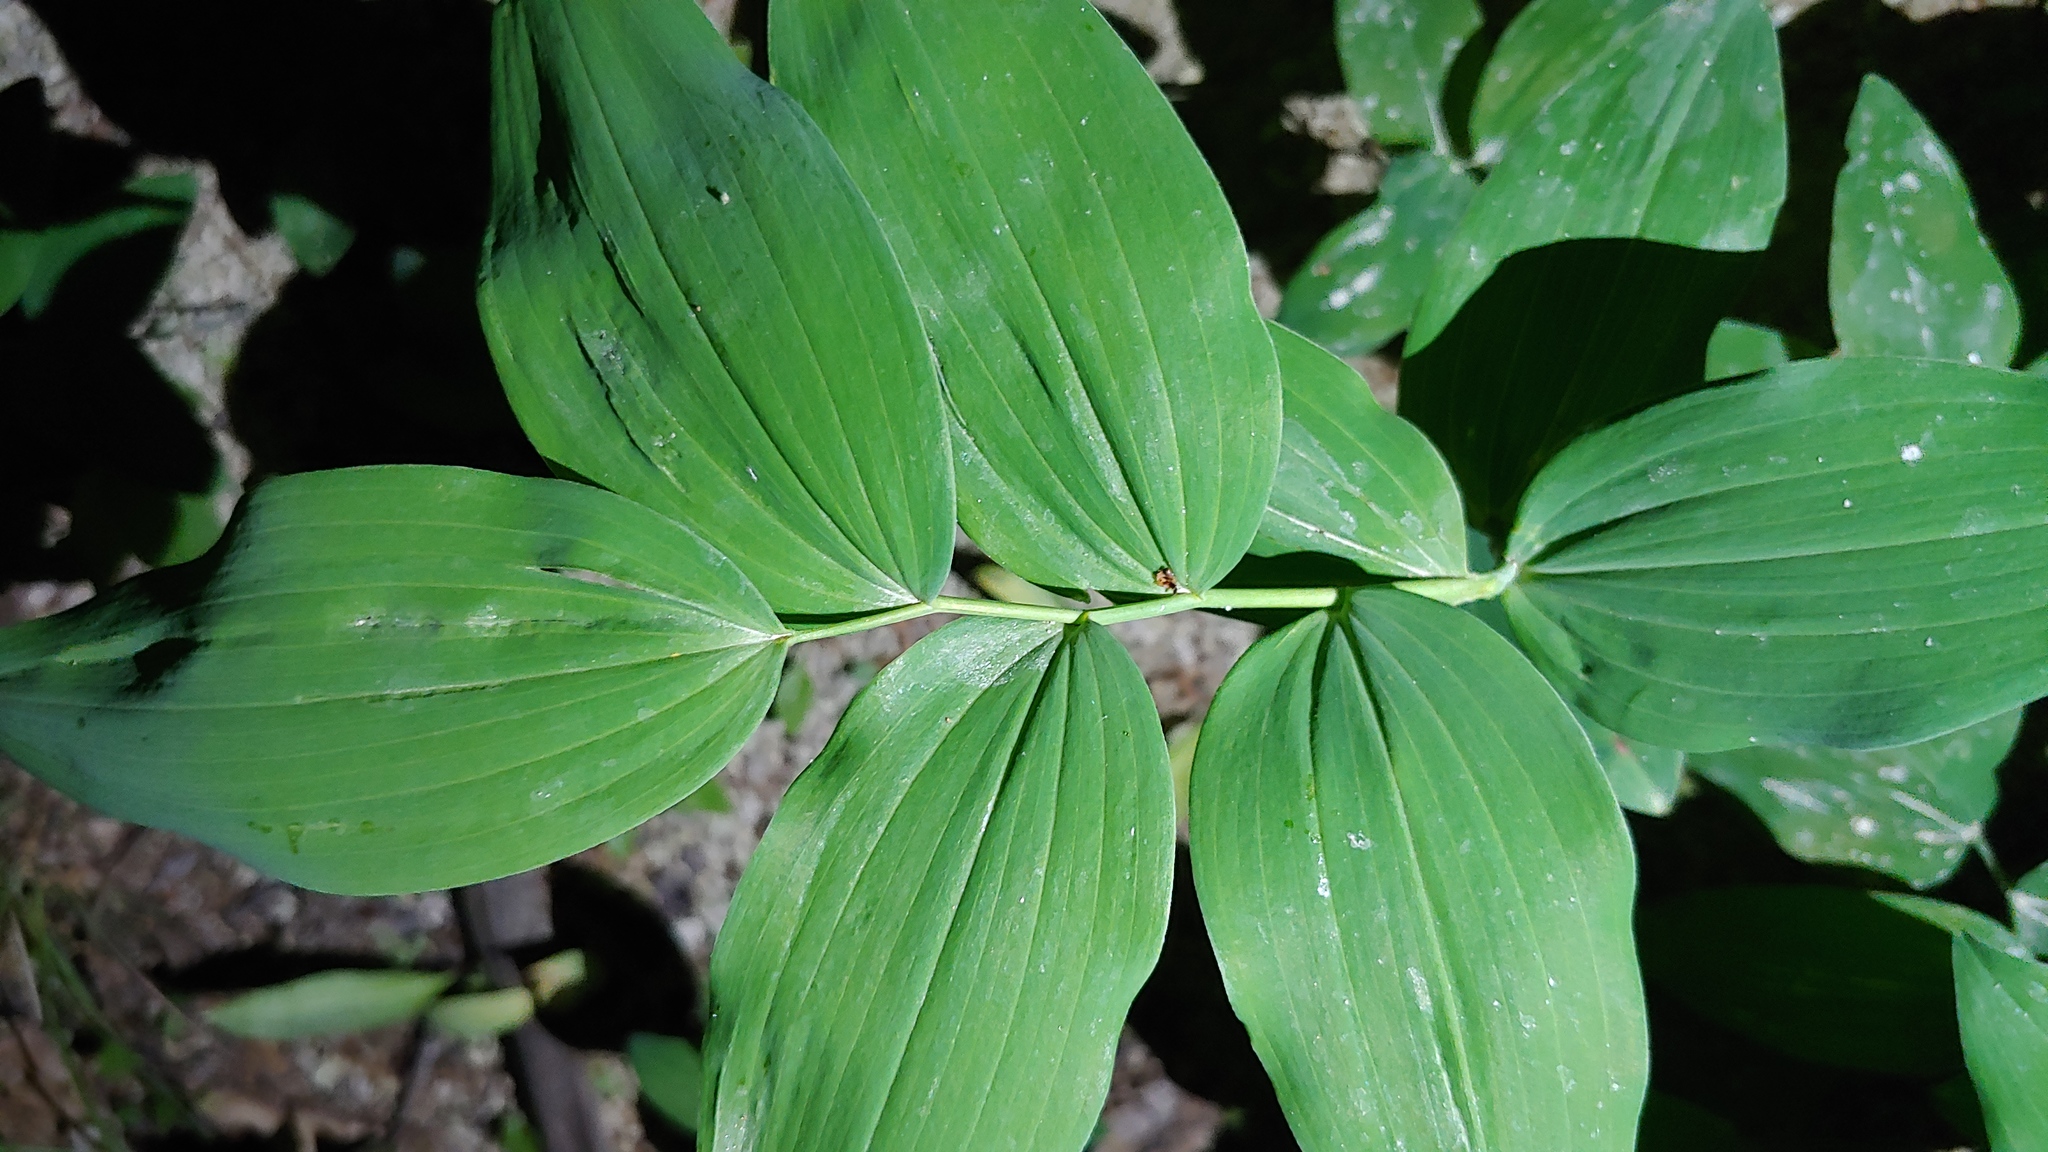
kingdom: Plantae
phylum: Tracheophyta
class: Liliopsida
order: Asparagales
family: Asparagaceae
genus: Polygonatum
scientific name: Polygonatum biflorum
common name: American solomon's-seal
